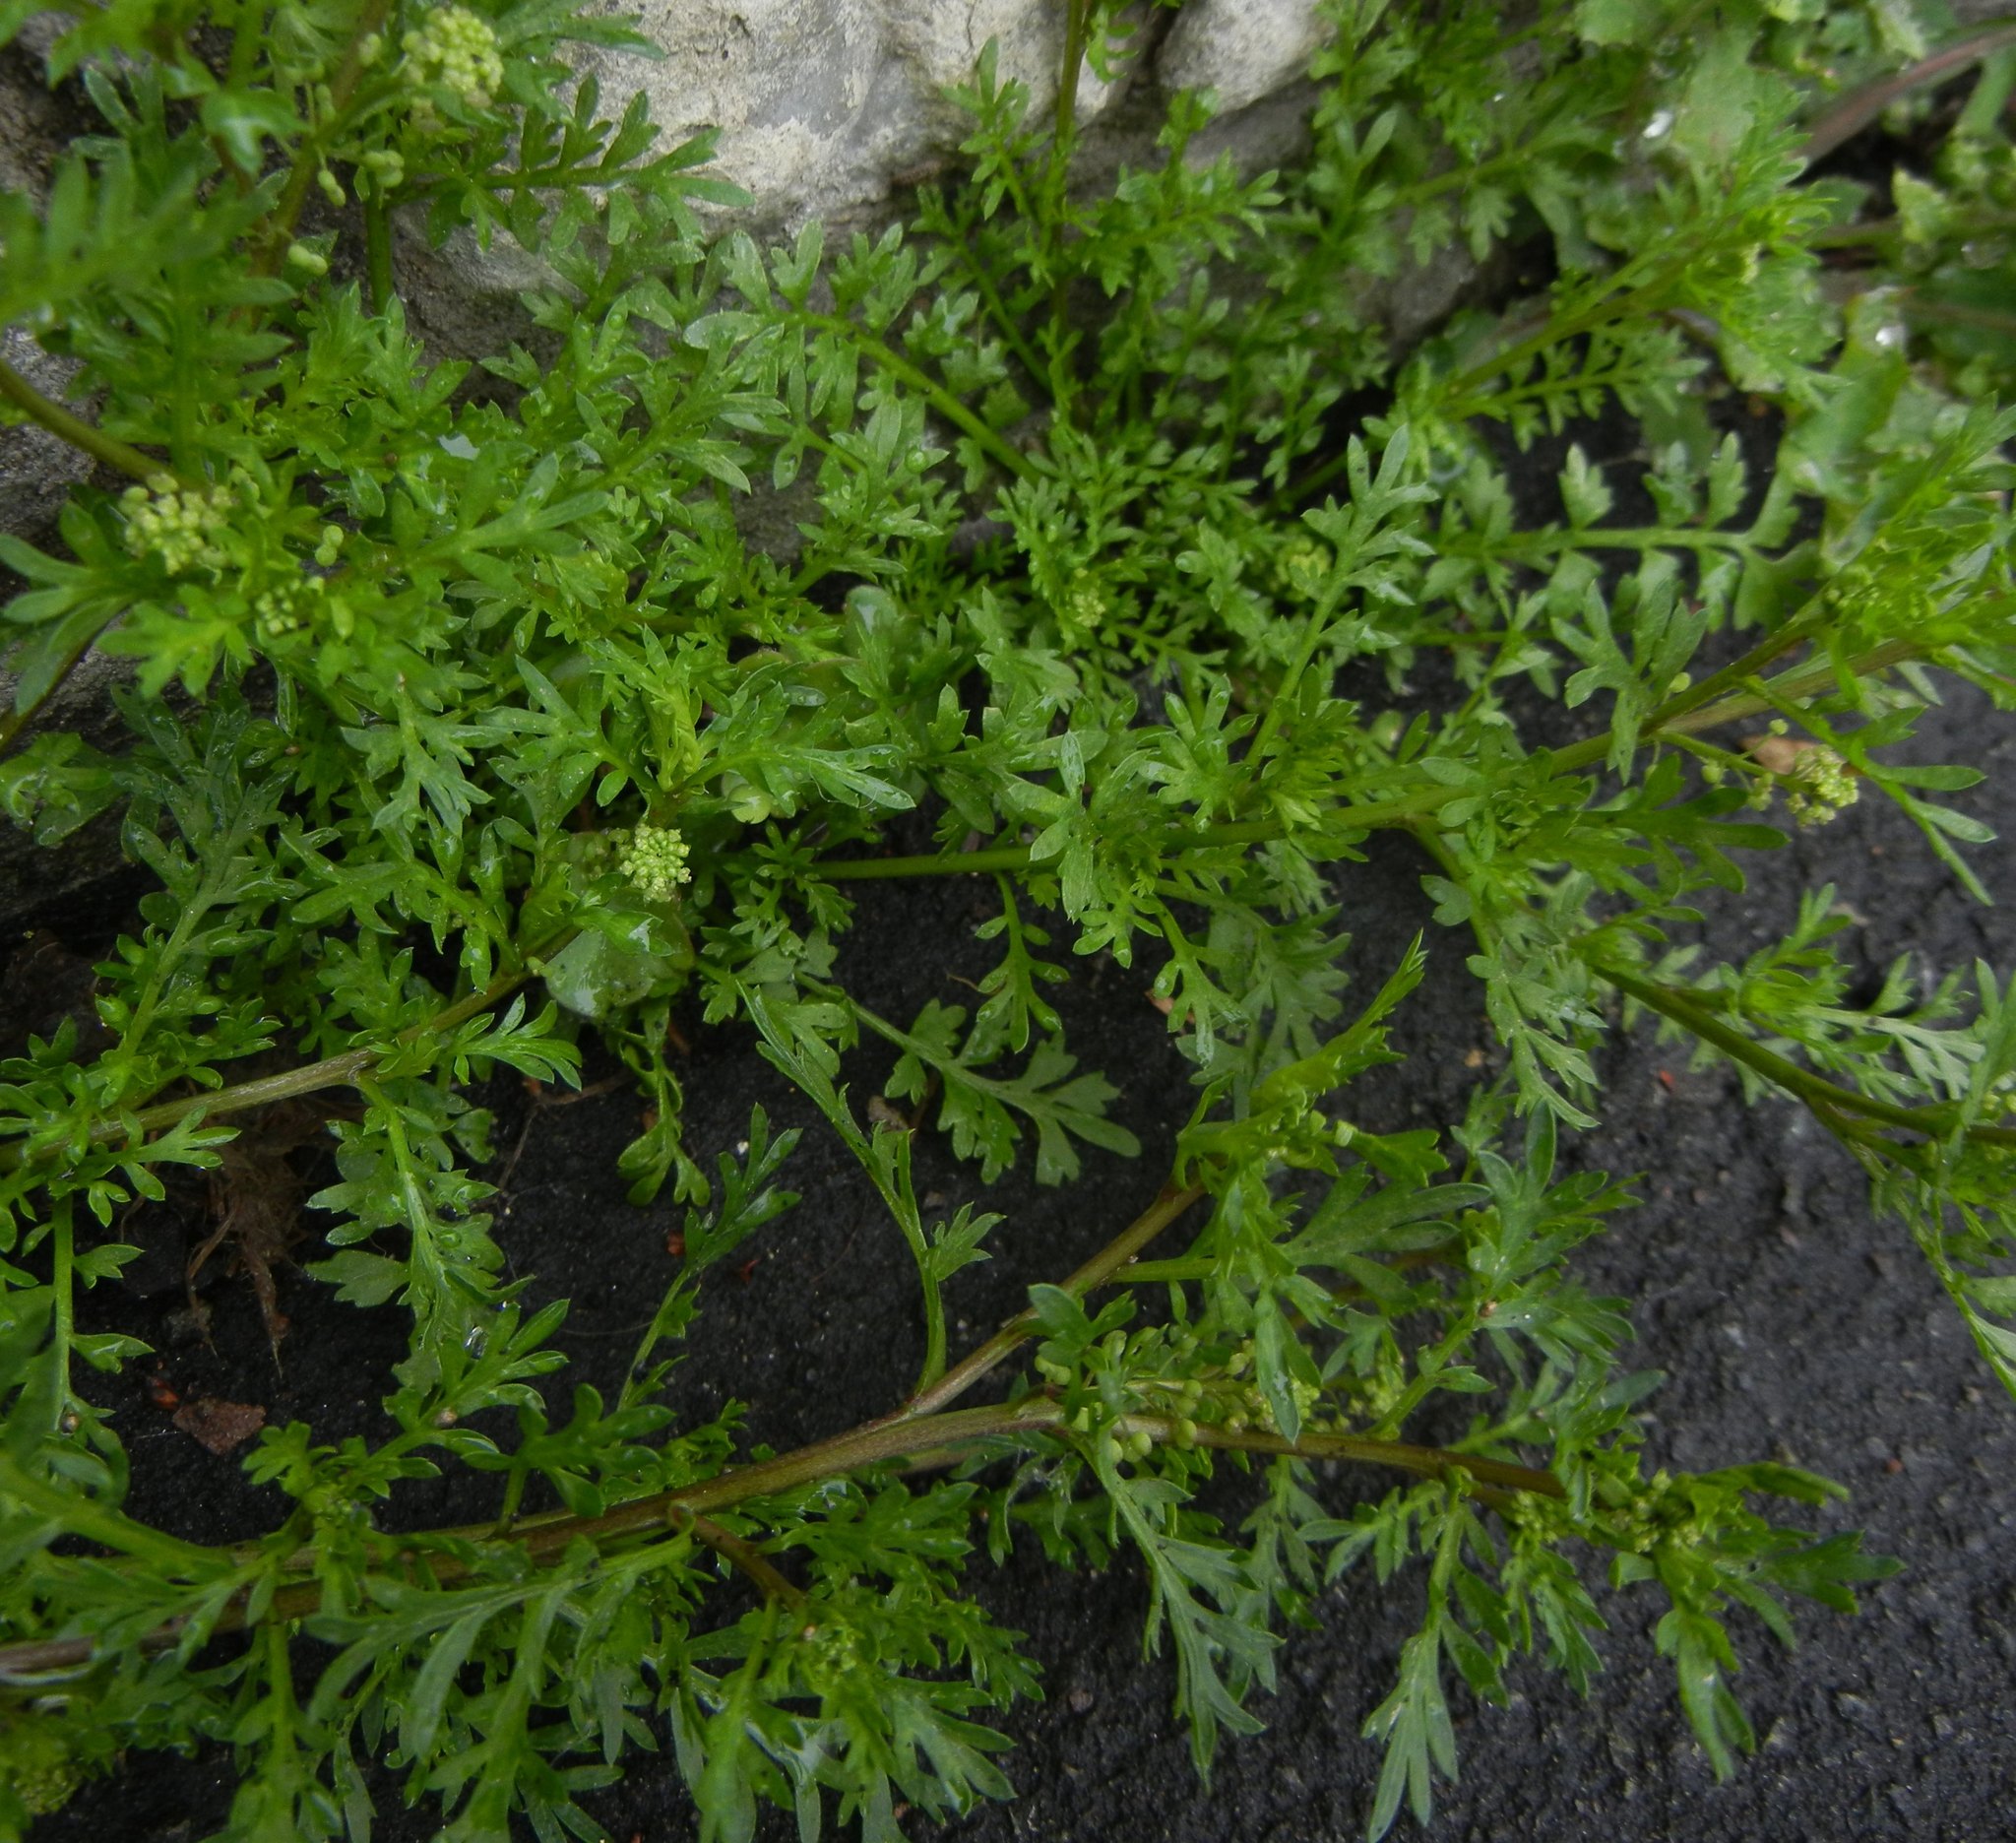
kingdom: Plantae
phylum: Tracheophyta
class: Magnoliopsida
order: Brassicales
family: Brassicaceae
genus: Lepidium
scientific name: Lepidium didymum
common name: Lesser swinecress
